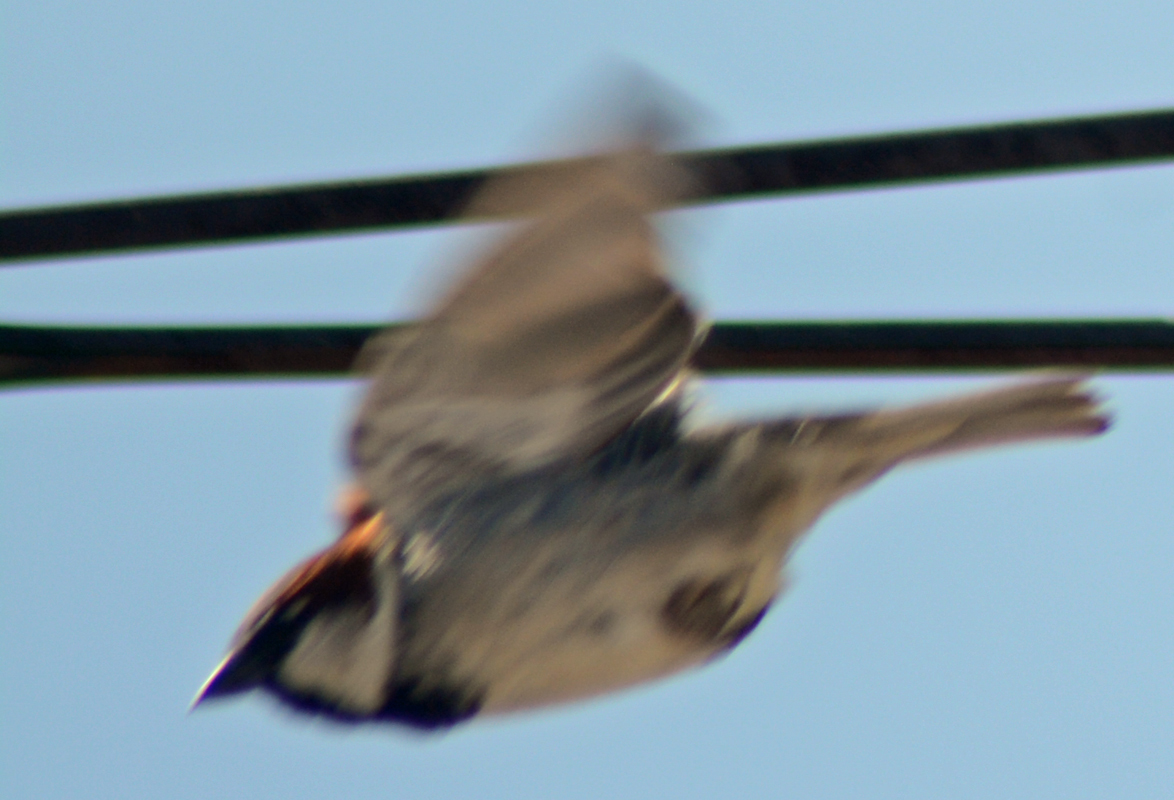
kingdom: Animalia
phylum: Chordata
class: Aves
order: Passeriformes
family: Passeridae
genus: Passer
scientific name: Passer domesticus
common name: House sparrow
